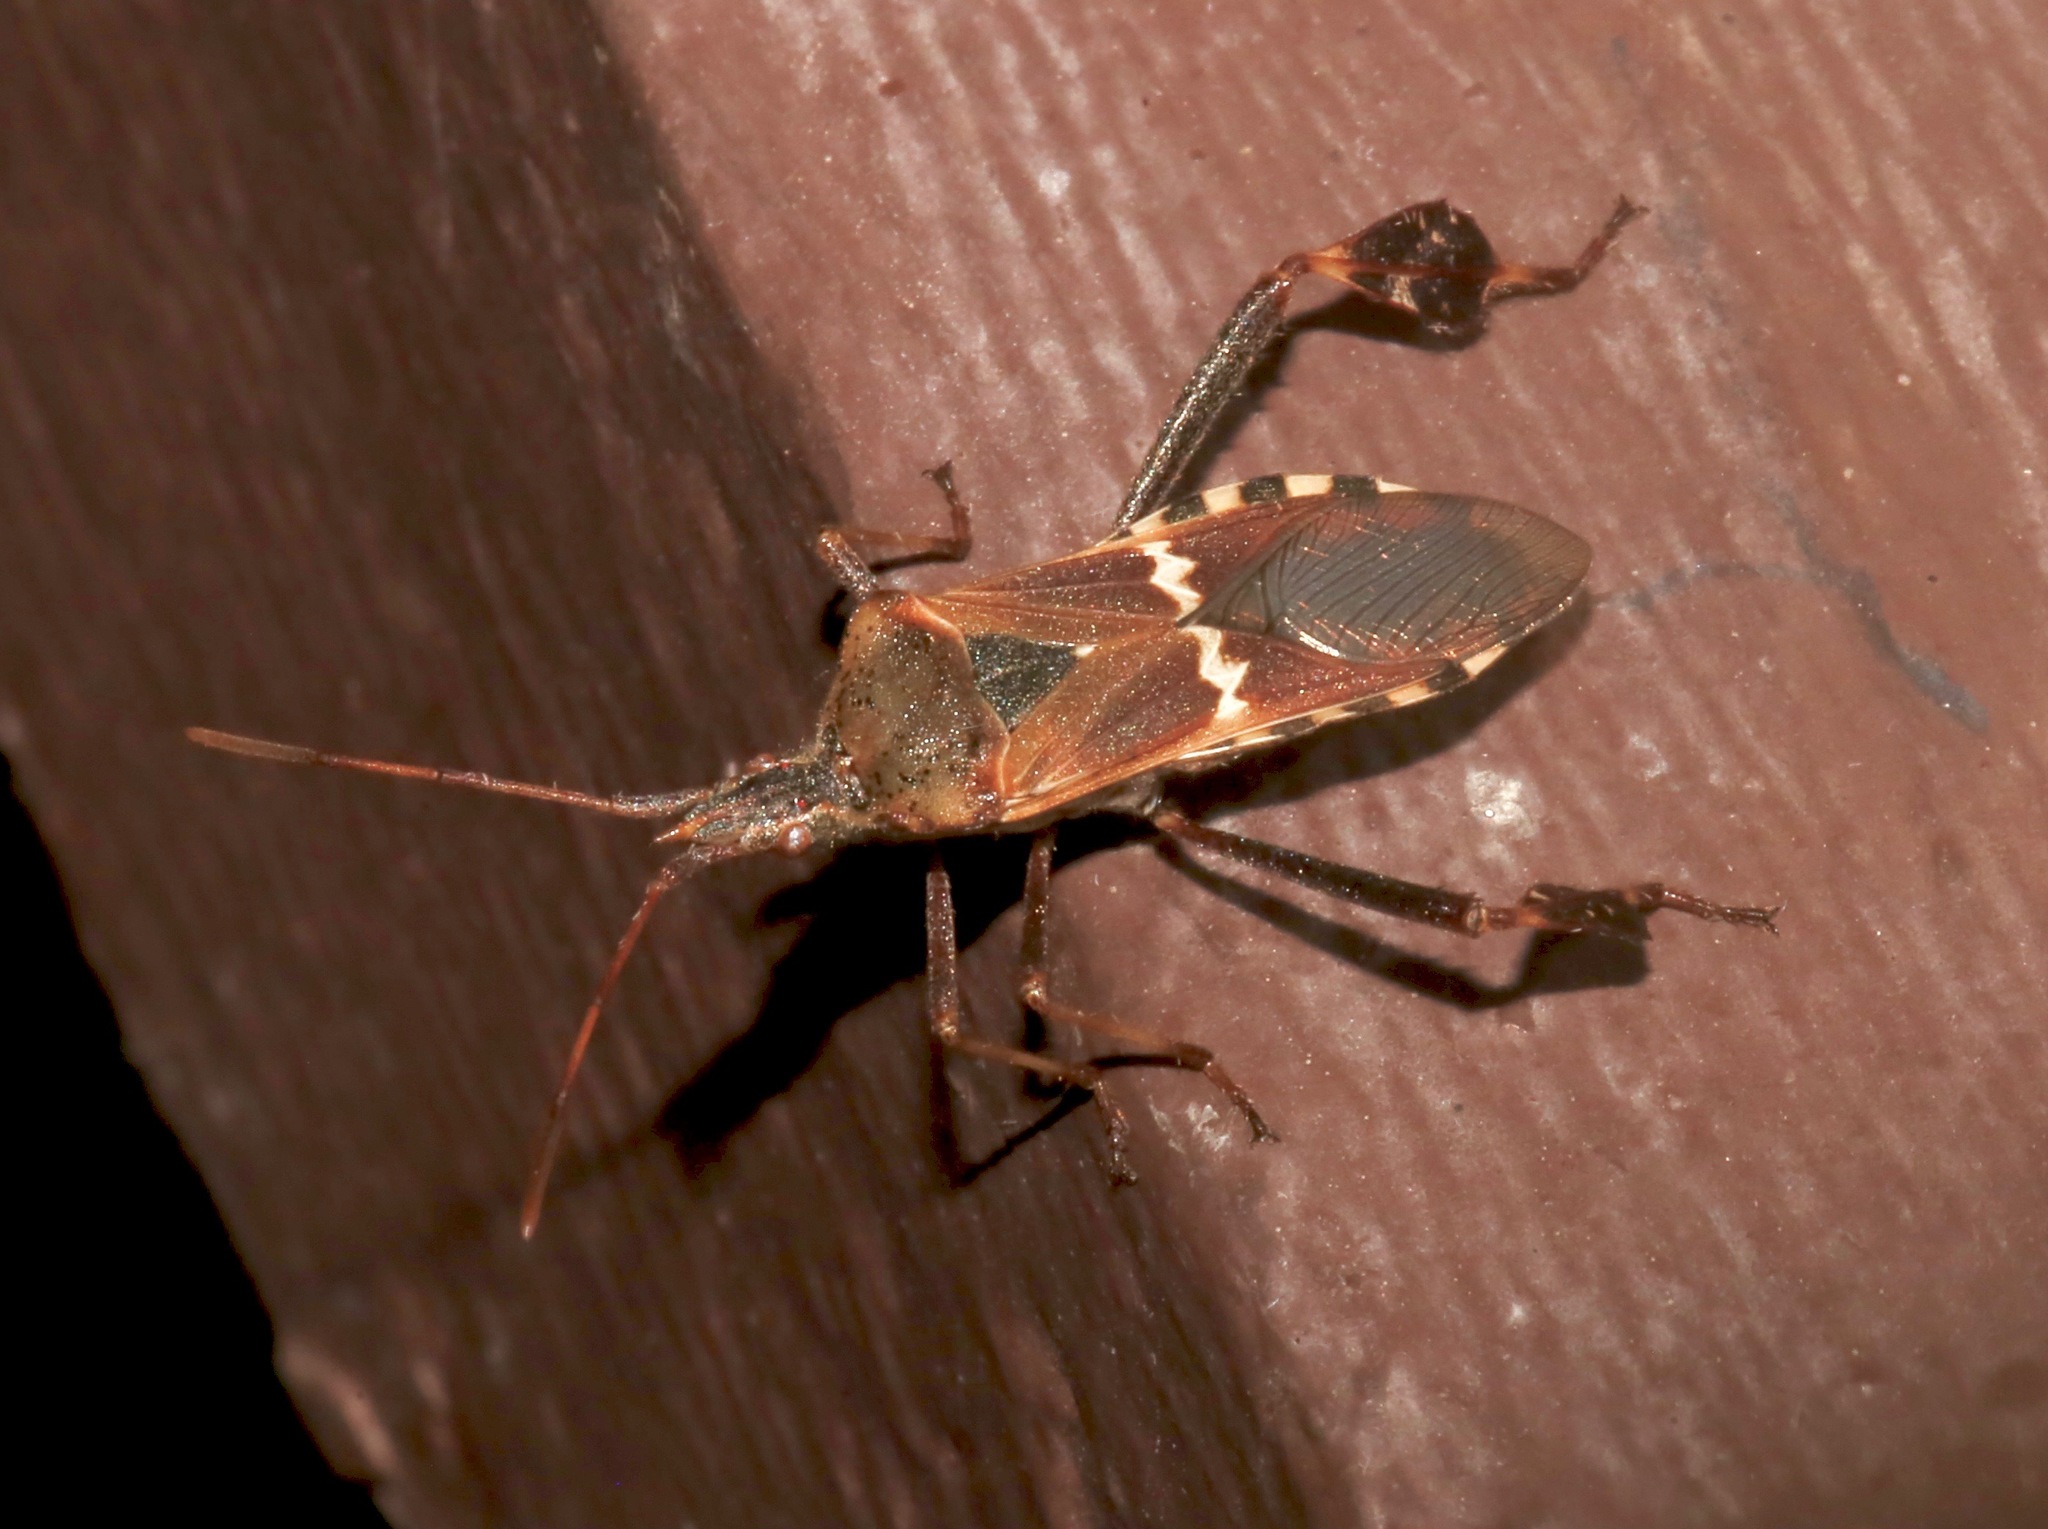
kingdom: Animalia
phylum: Arthropoda
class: Insecta
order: Hemiptera
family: Coreidae
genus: Leptoglossus
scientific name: Leptoglossus clypealis
